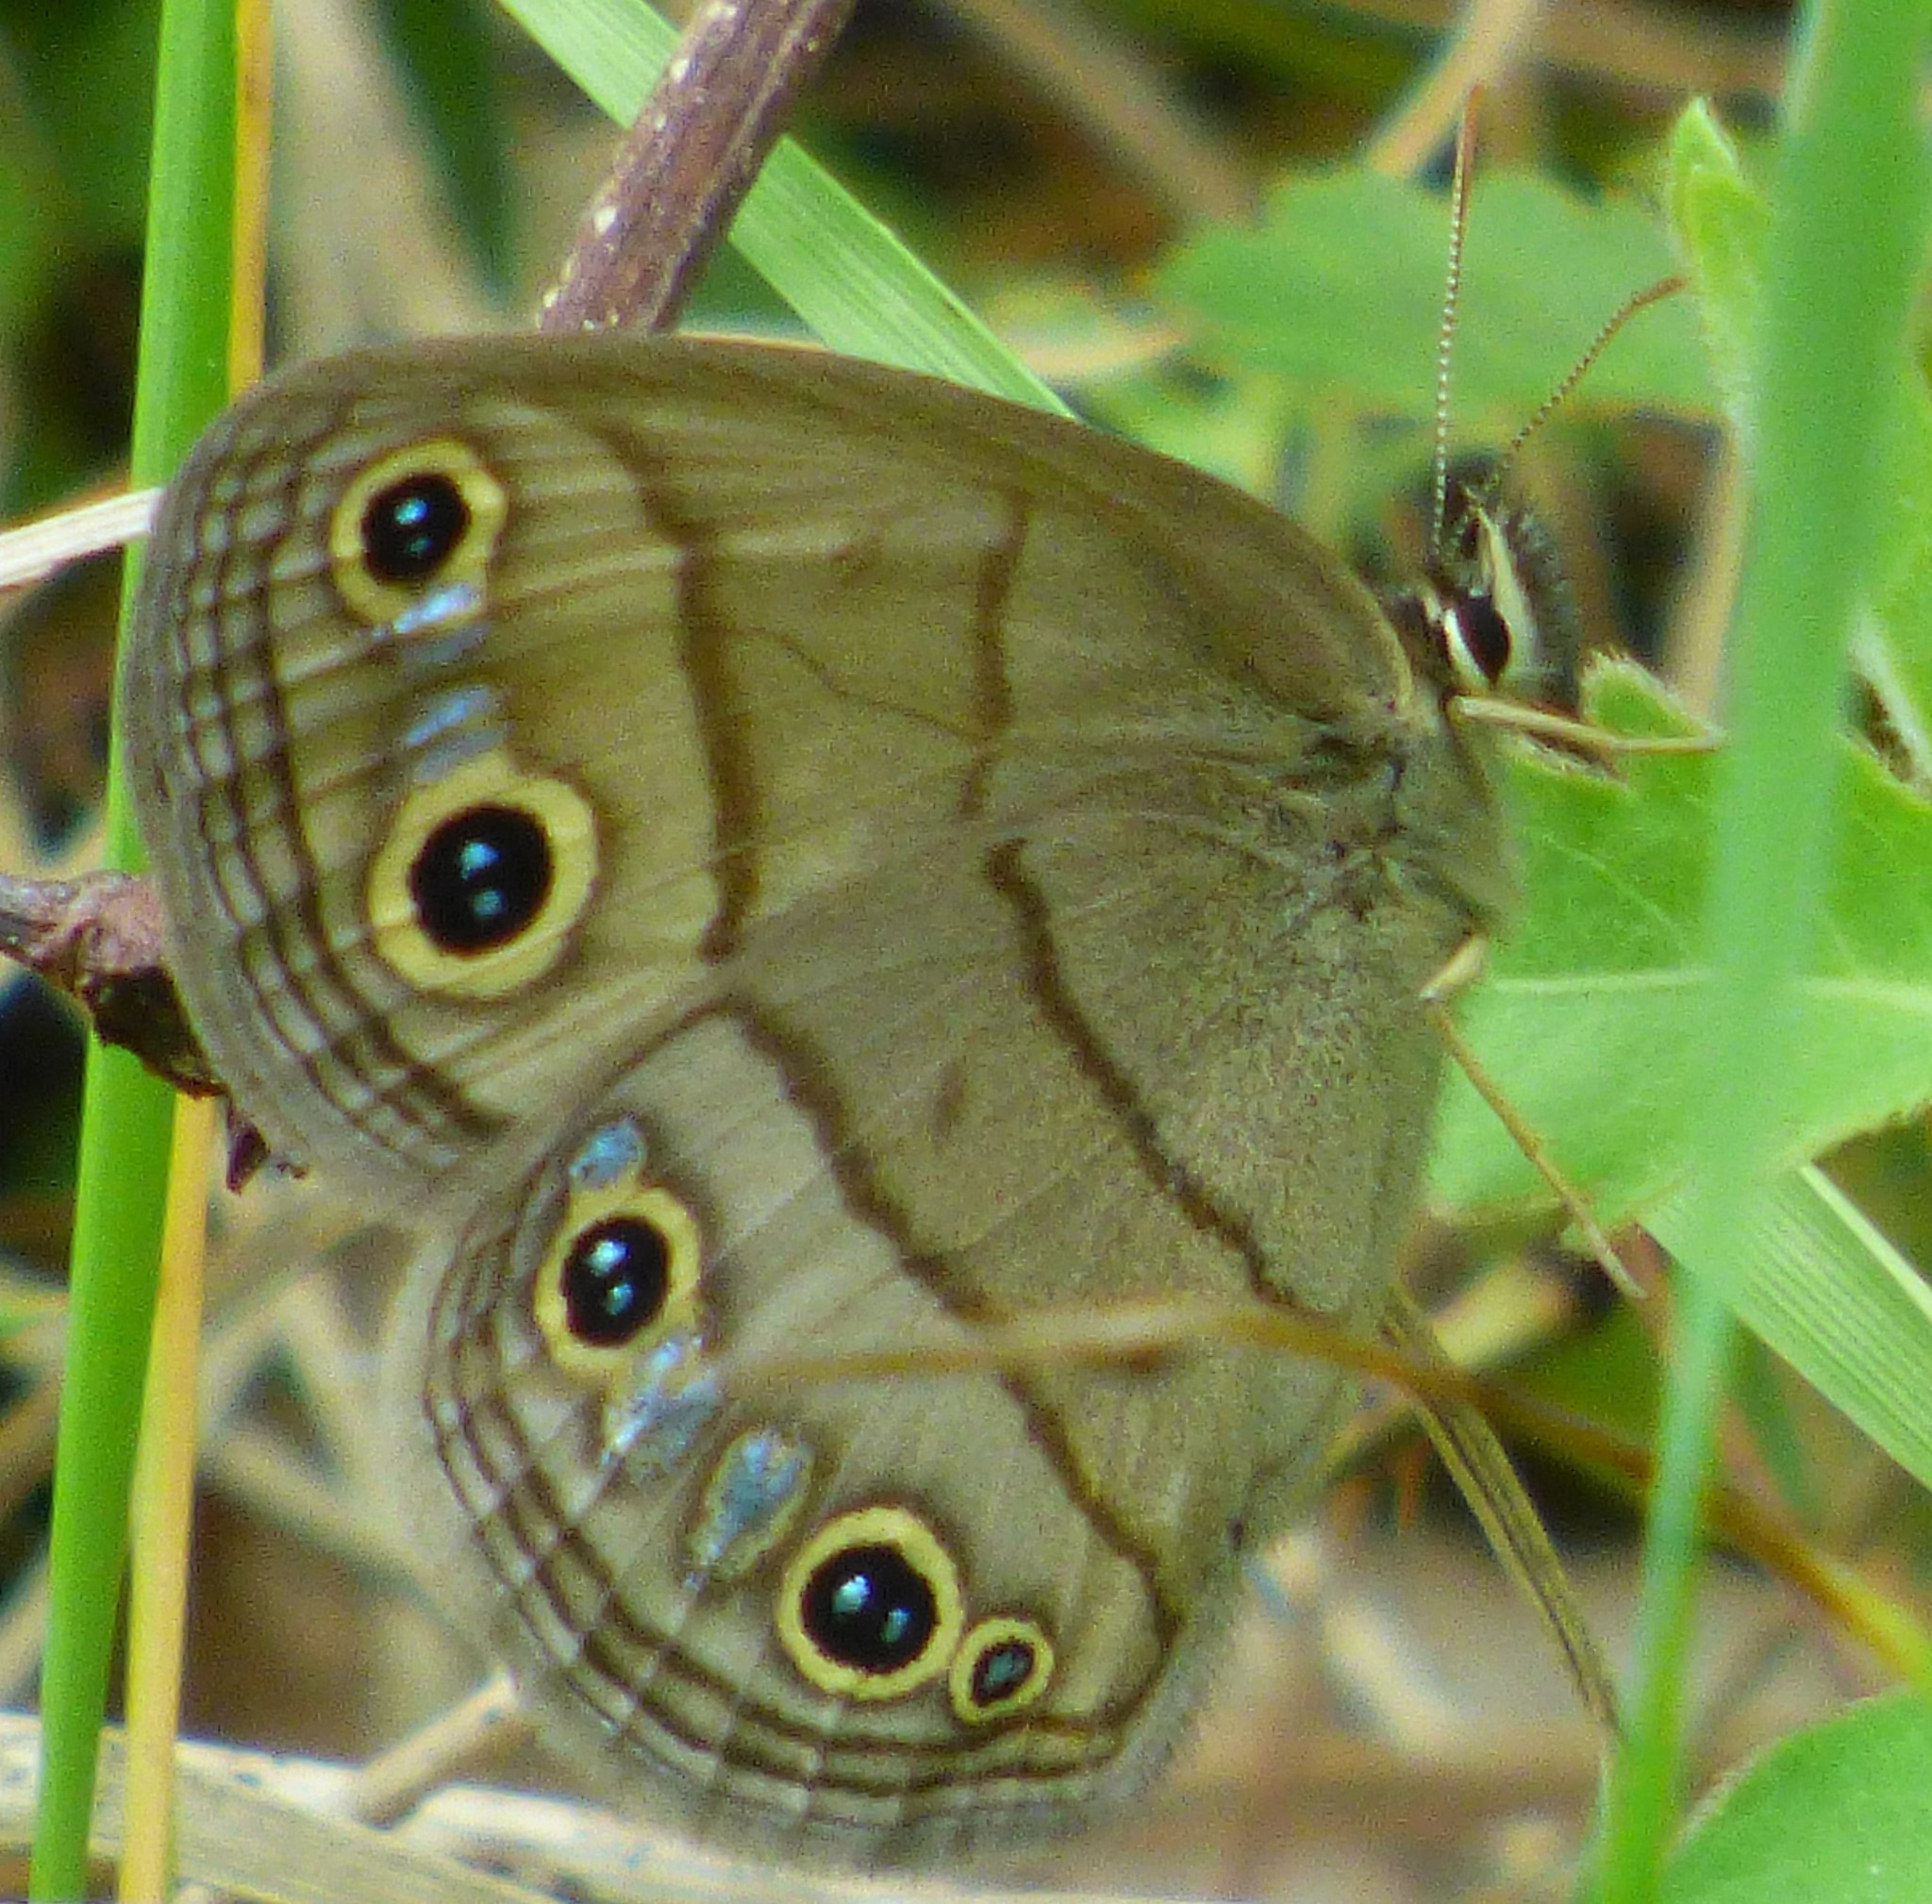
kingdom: Animalia
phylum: Arthropoda
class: Insecta
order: Lepidoptera
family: Nymphalidae
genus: Euptychia
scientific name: Euptychia cymela
